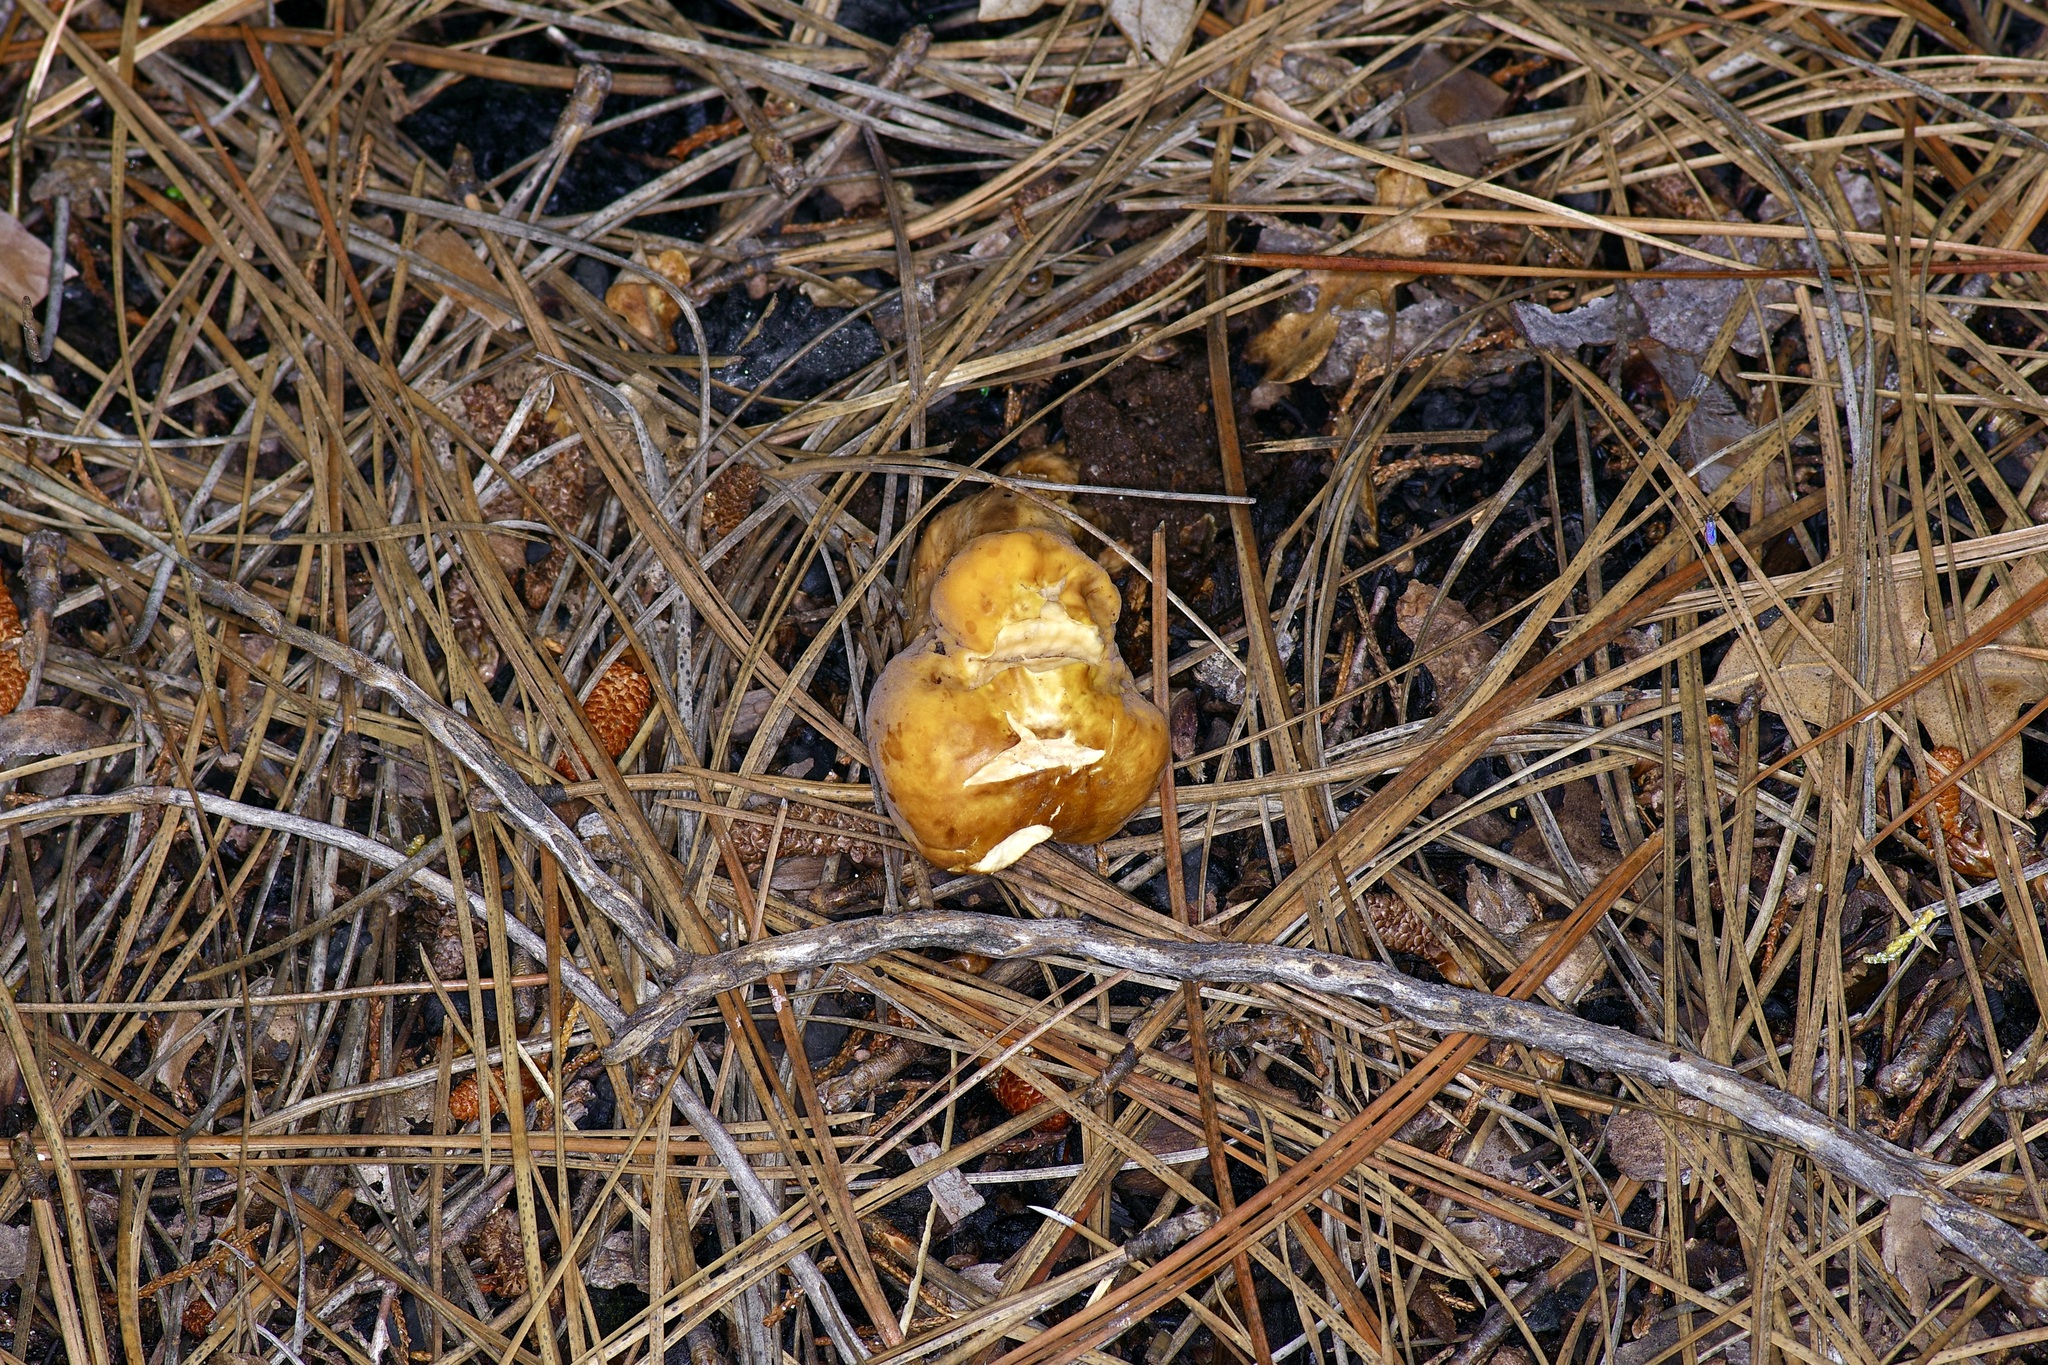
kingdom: Fungi
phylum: Basidiomycota
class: Agaricomycetes
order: Gomphales
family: Clavariadelphaceae
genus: Clavariadelphus
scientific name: Clavariadelphus truncatus
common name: Truncated club
